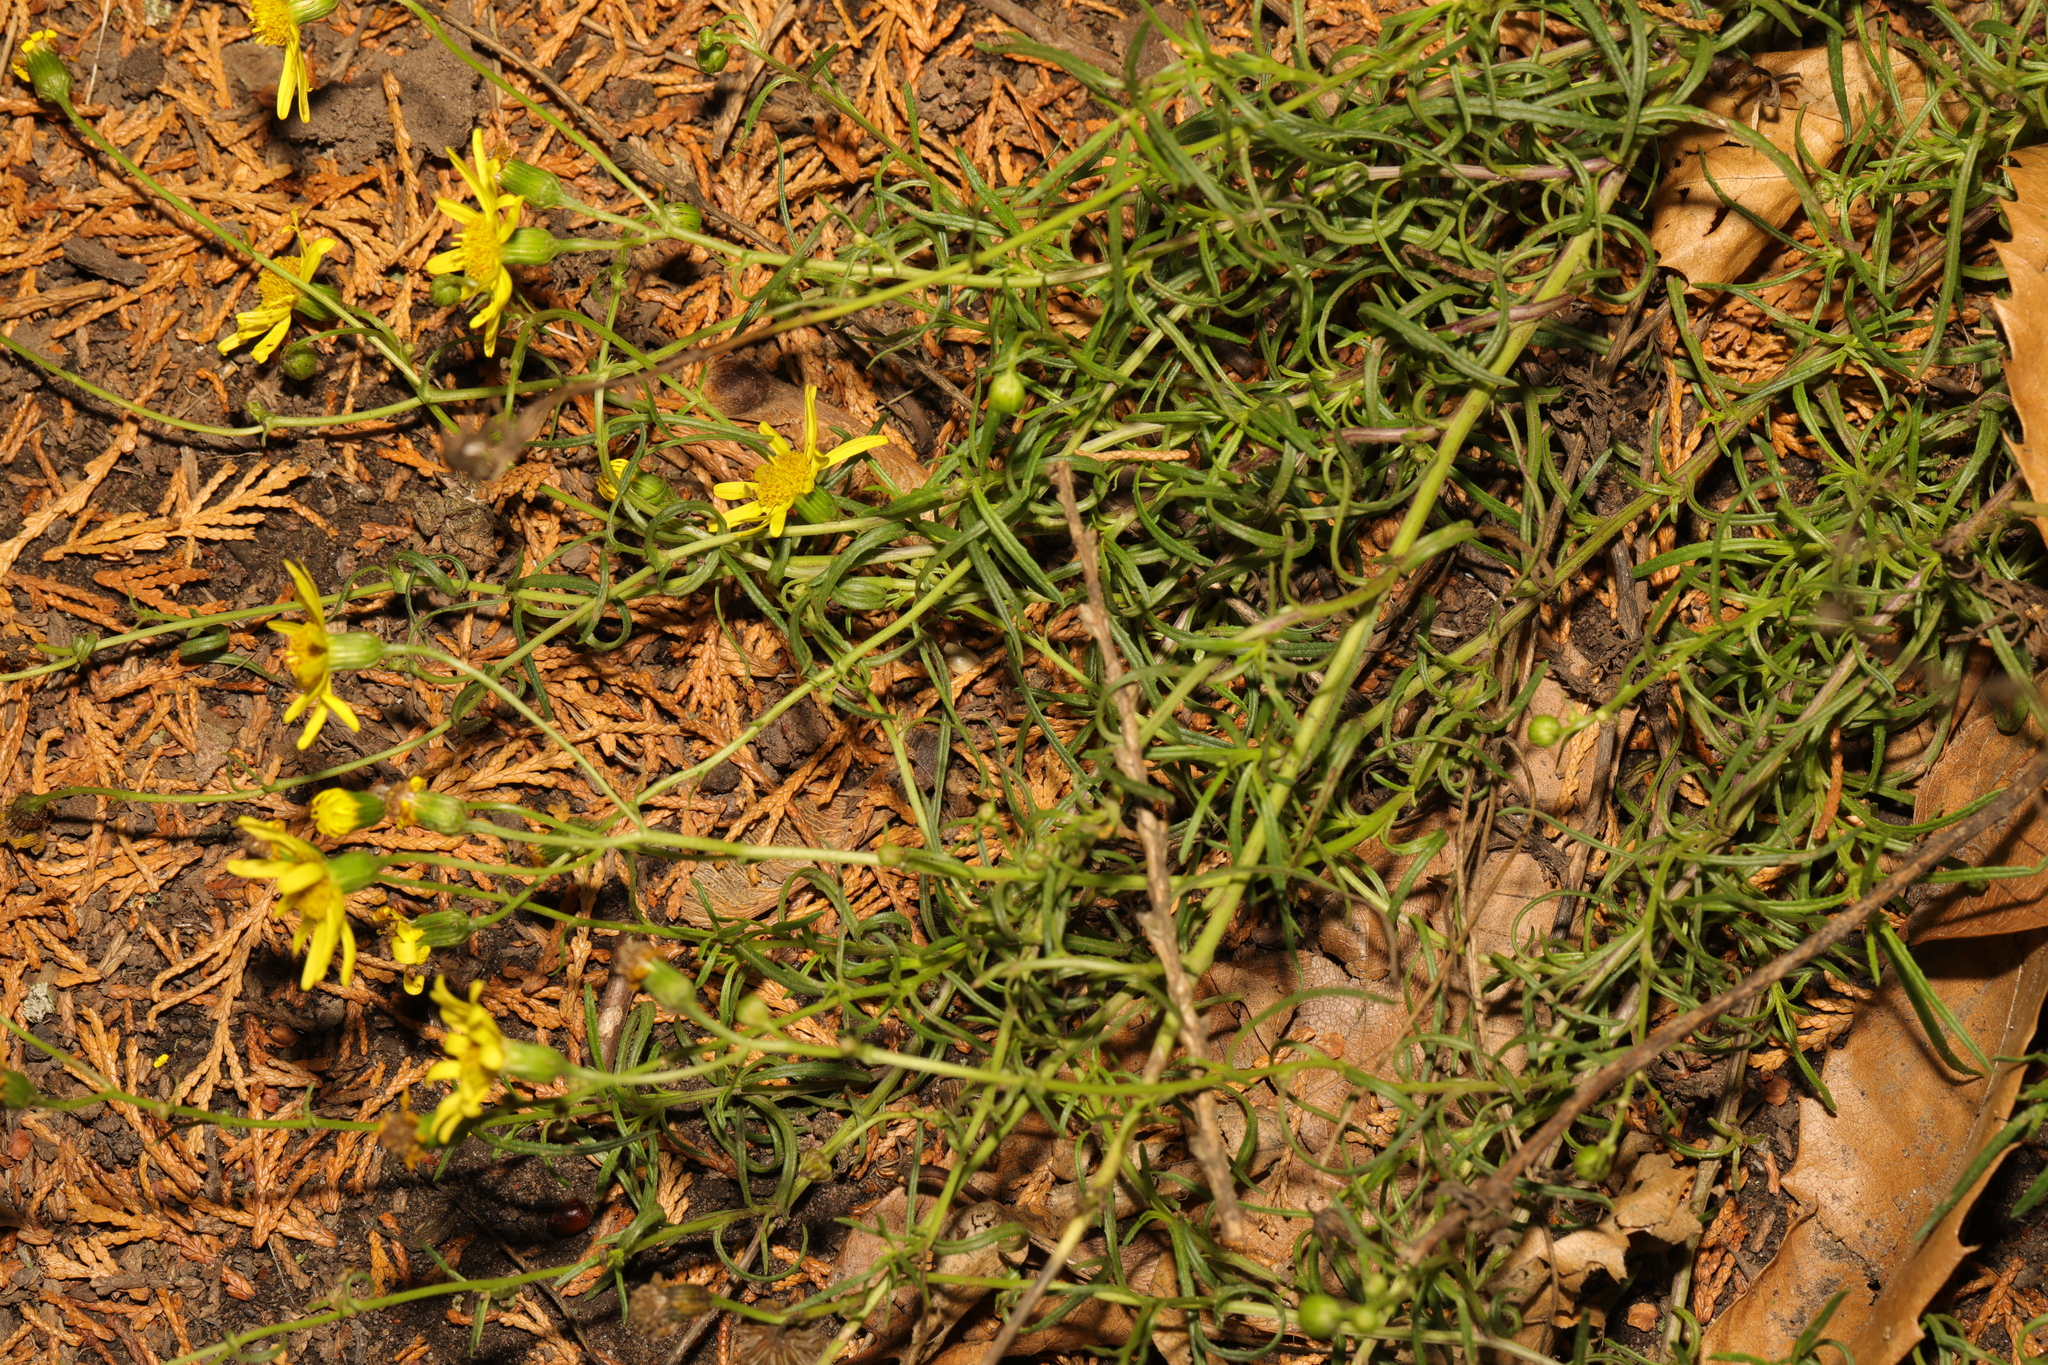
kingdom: Plantae
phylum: Tracheophyta
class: Magnoliopsida
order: Asterales
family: Asteraceae
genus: Senecio
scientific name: Senecio inaequidens
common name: Narrow-leaved ragwort
